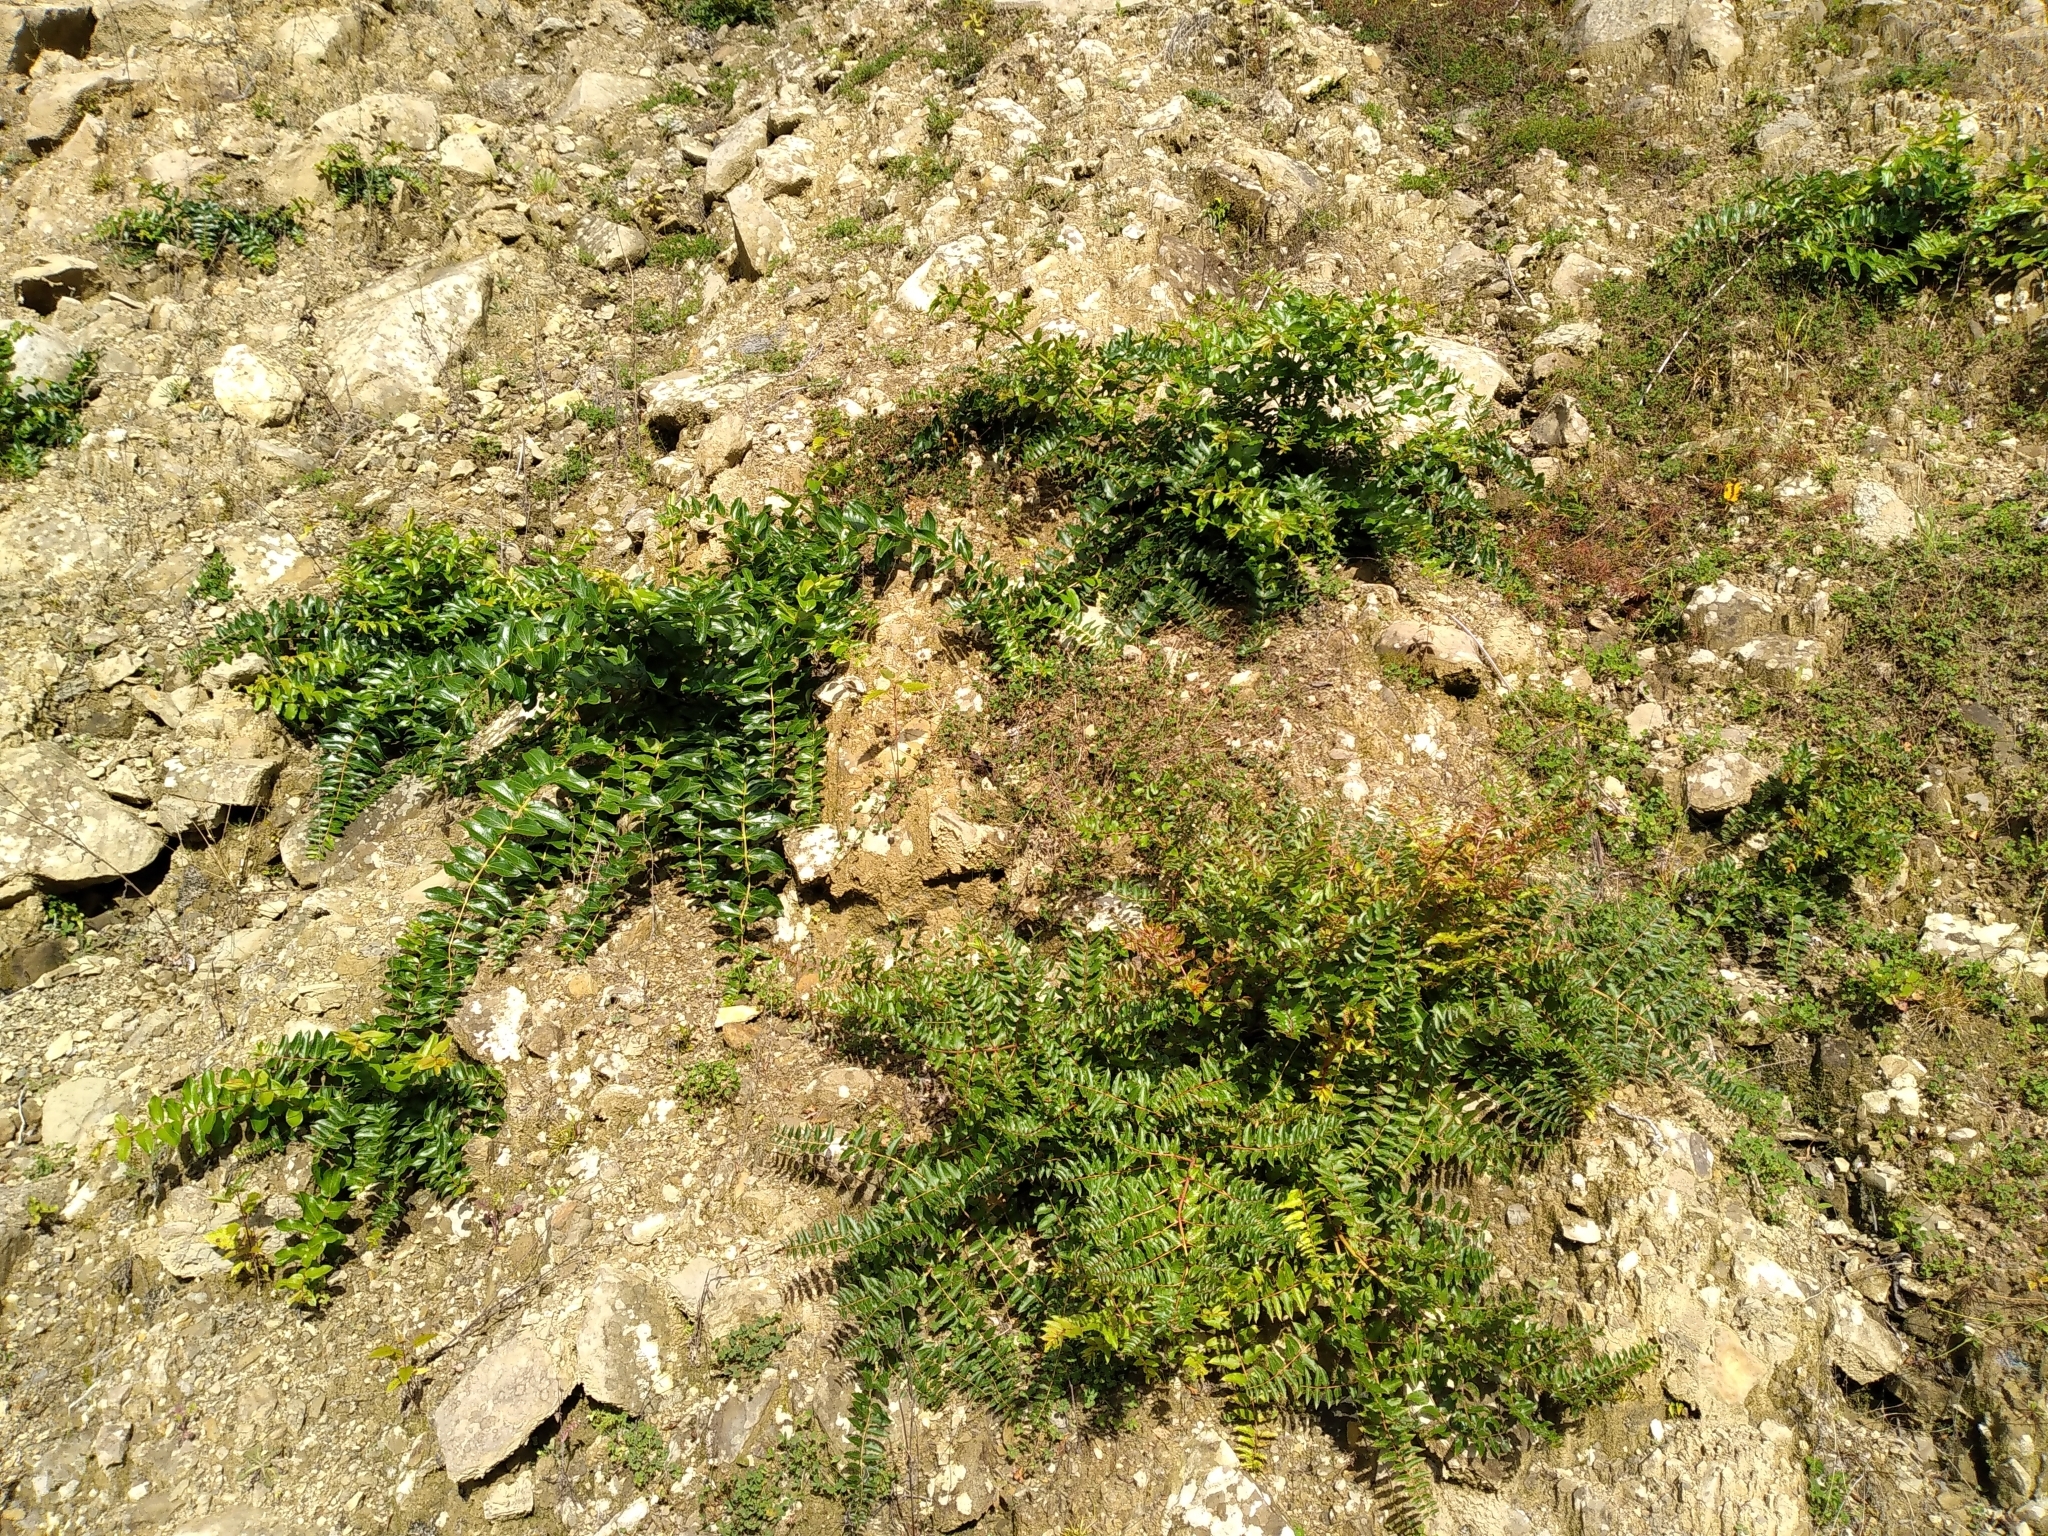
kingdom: Plantae
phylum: Tracheophyta
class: Magnoliopsida
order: Cucurbitales
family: Coriariaceae
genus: Coriaria
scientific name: Coriaria sarmentosa
